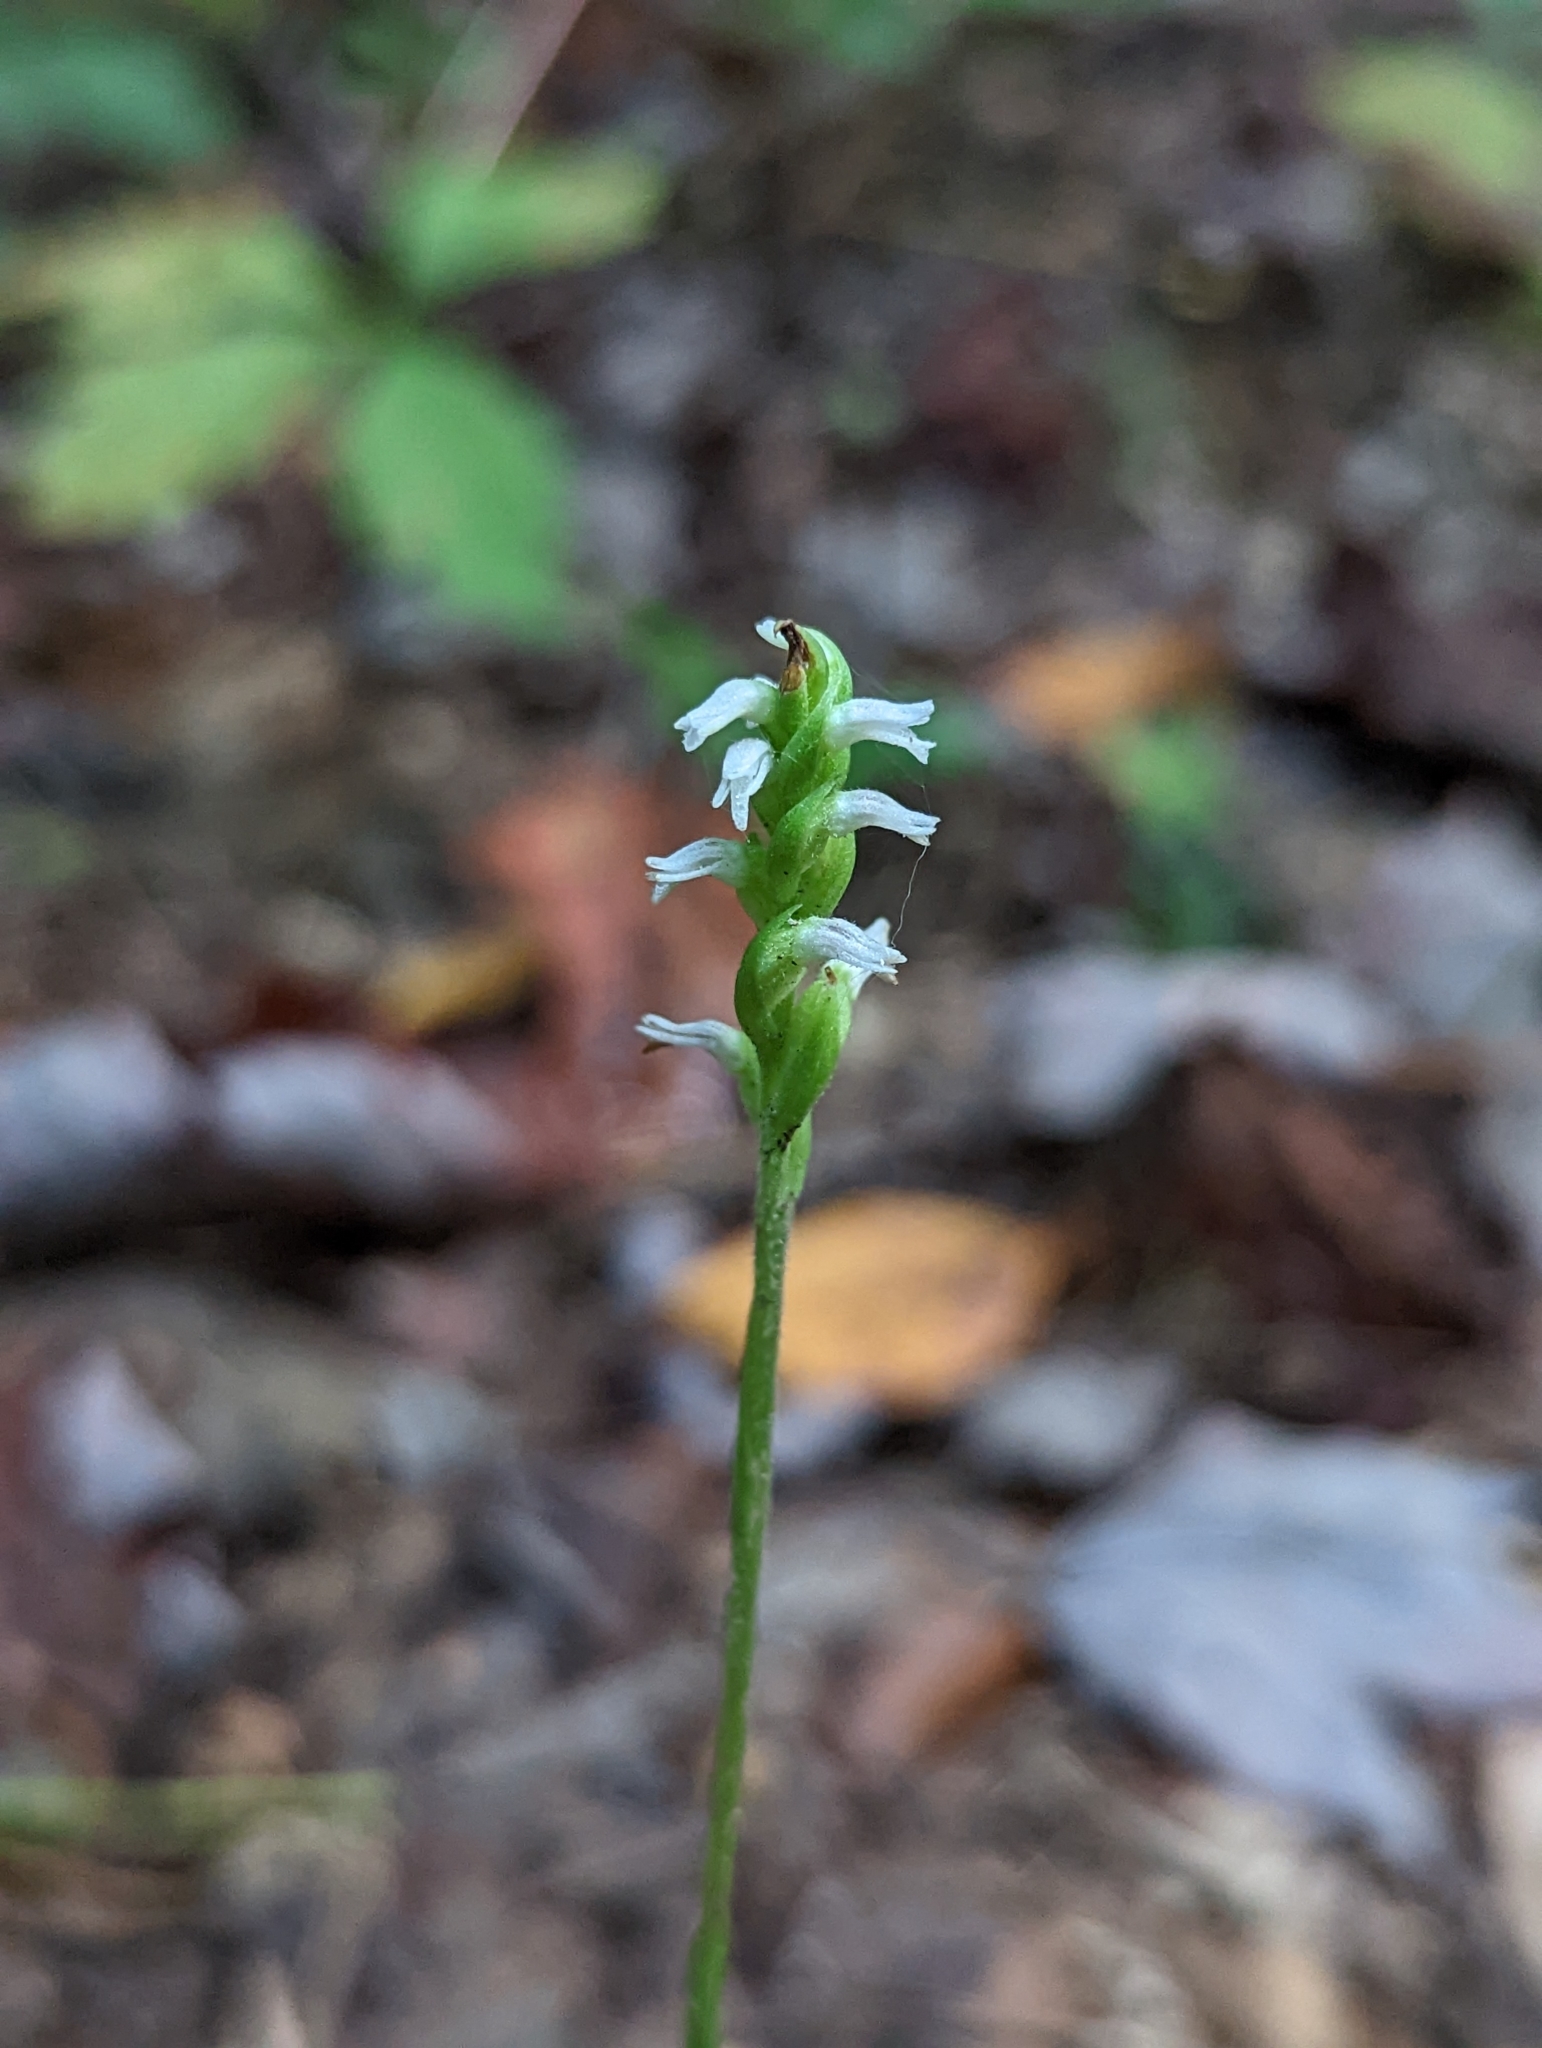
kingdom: Plantae
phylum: Tracheophyta
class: Liliopsida
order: Asparagales
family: Orchidaceae
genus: Spiranthes
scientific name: Spiranthes ovalis
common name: October ladies'-tresses
